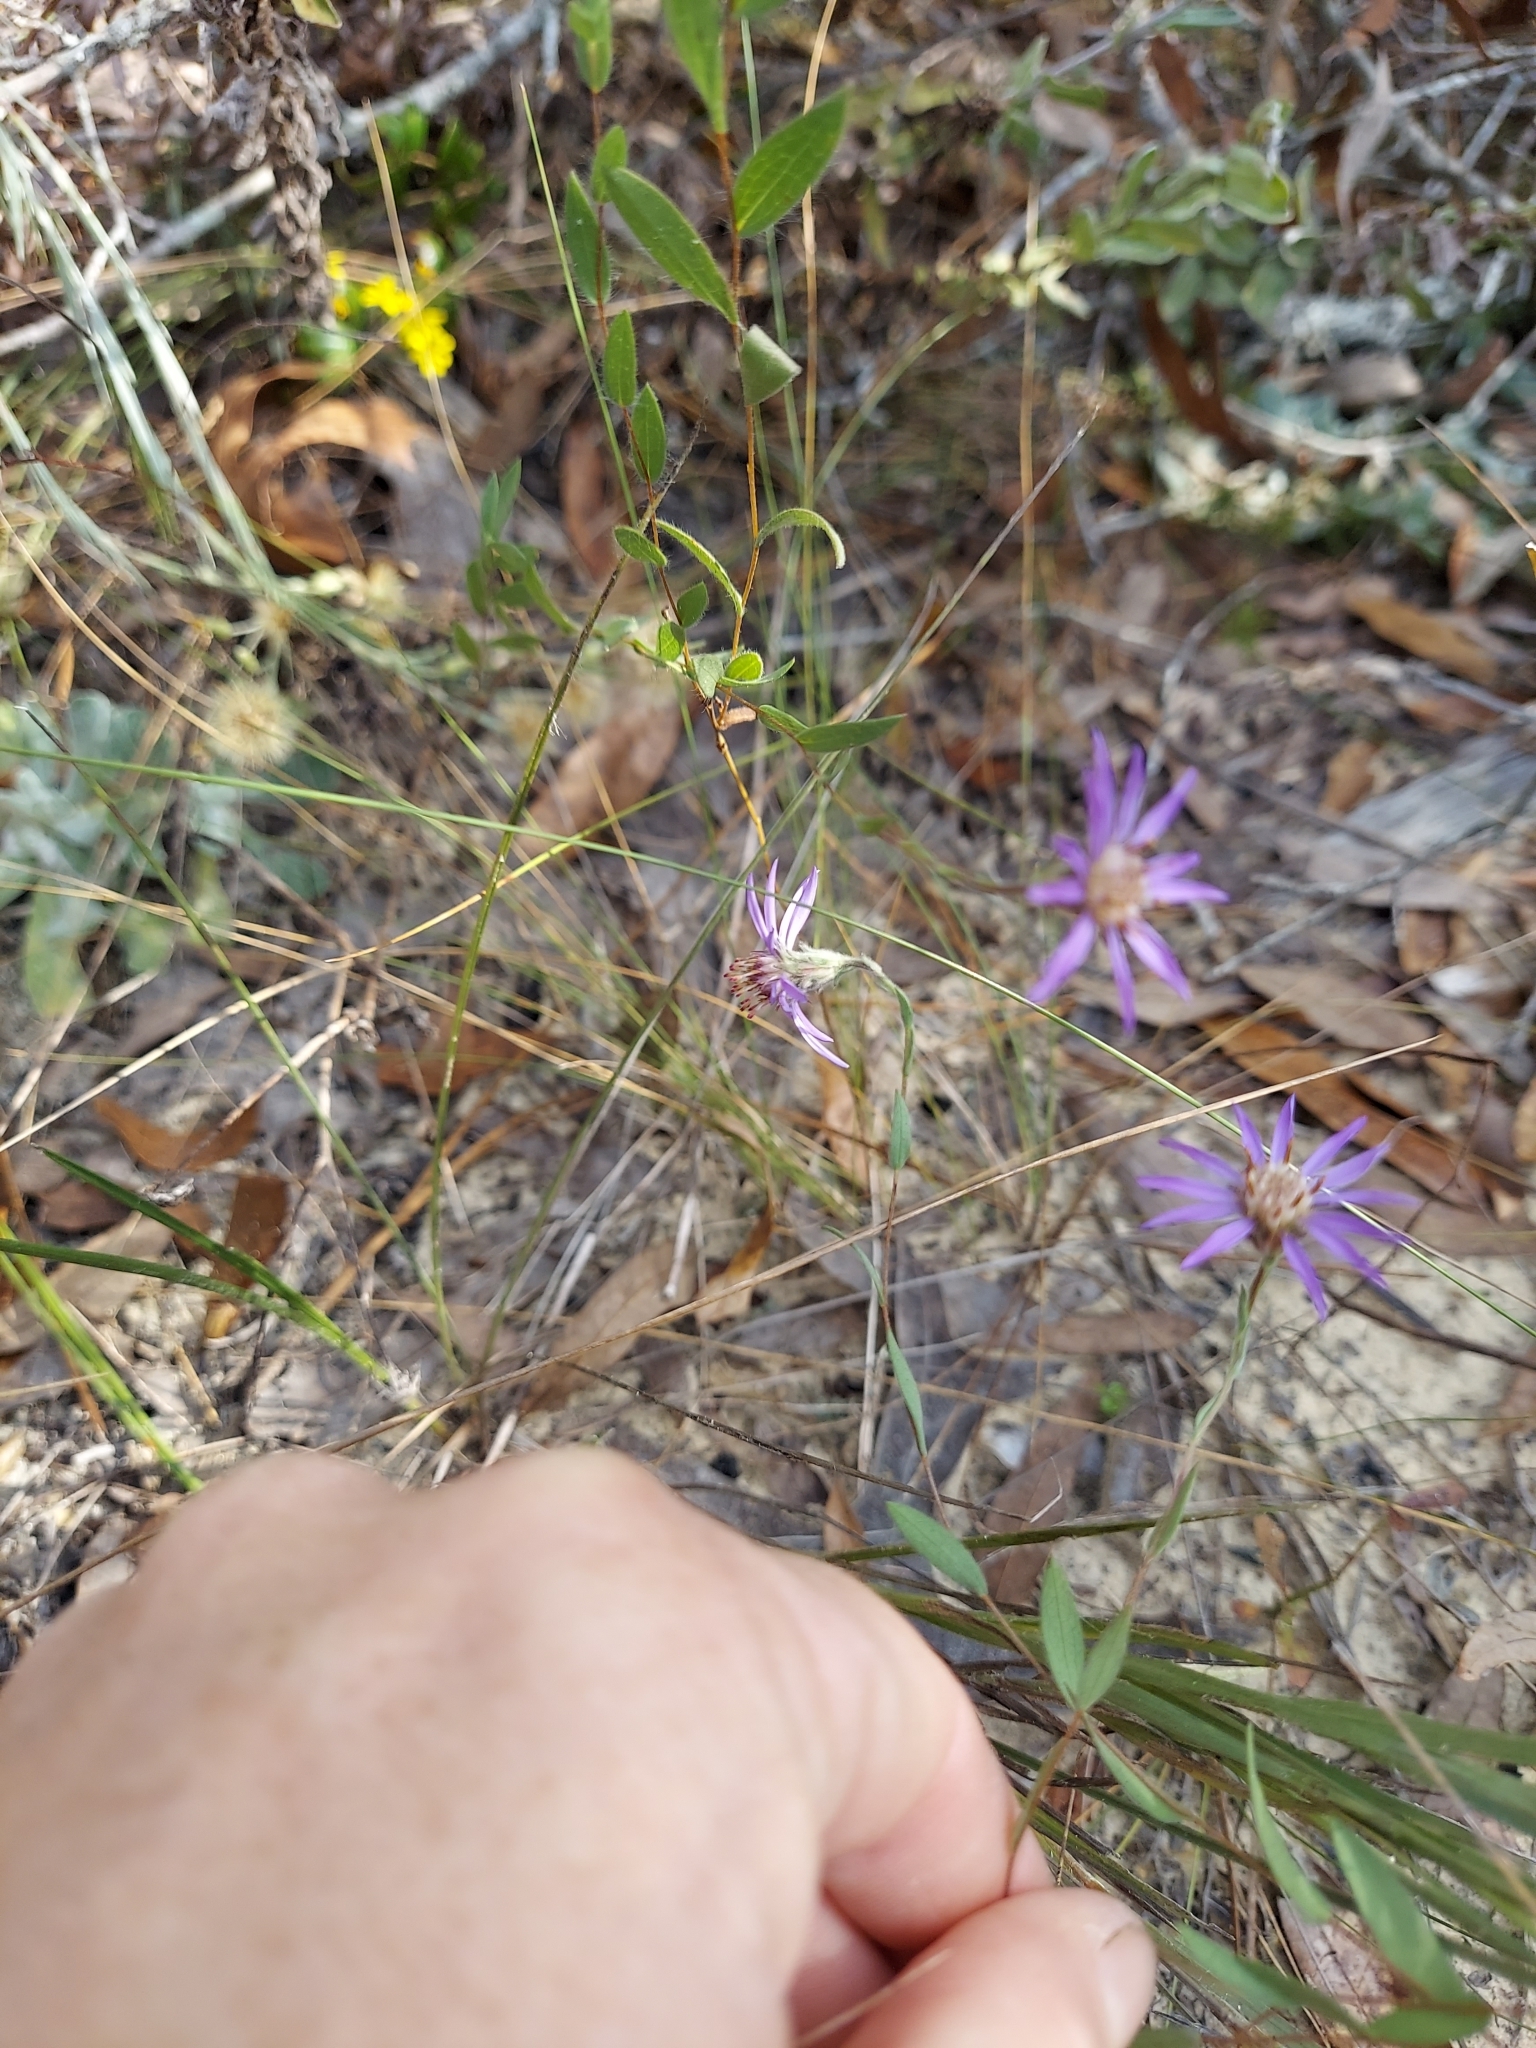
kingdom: Plantae
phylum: Tracheophyta
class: Magnoliopsida
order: Asterales
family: Asteraceae
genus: Symphyotrichum
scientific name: Symphyotrichum concolor
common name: Eastern silver aster
